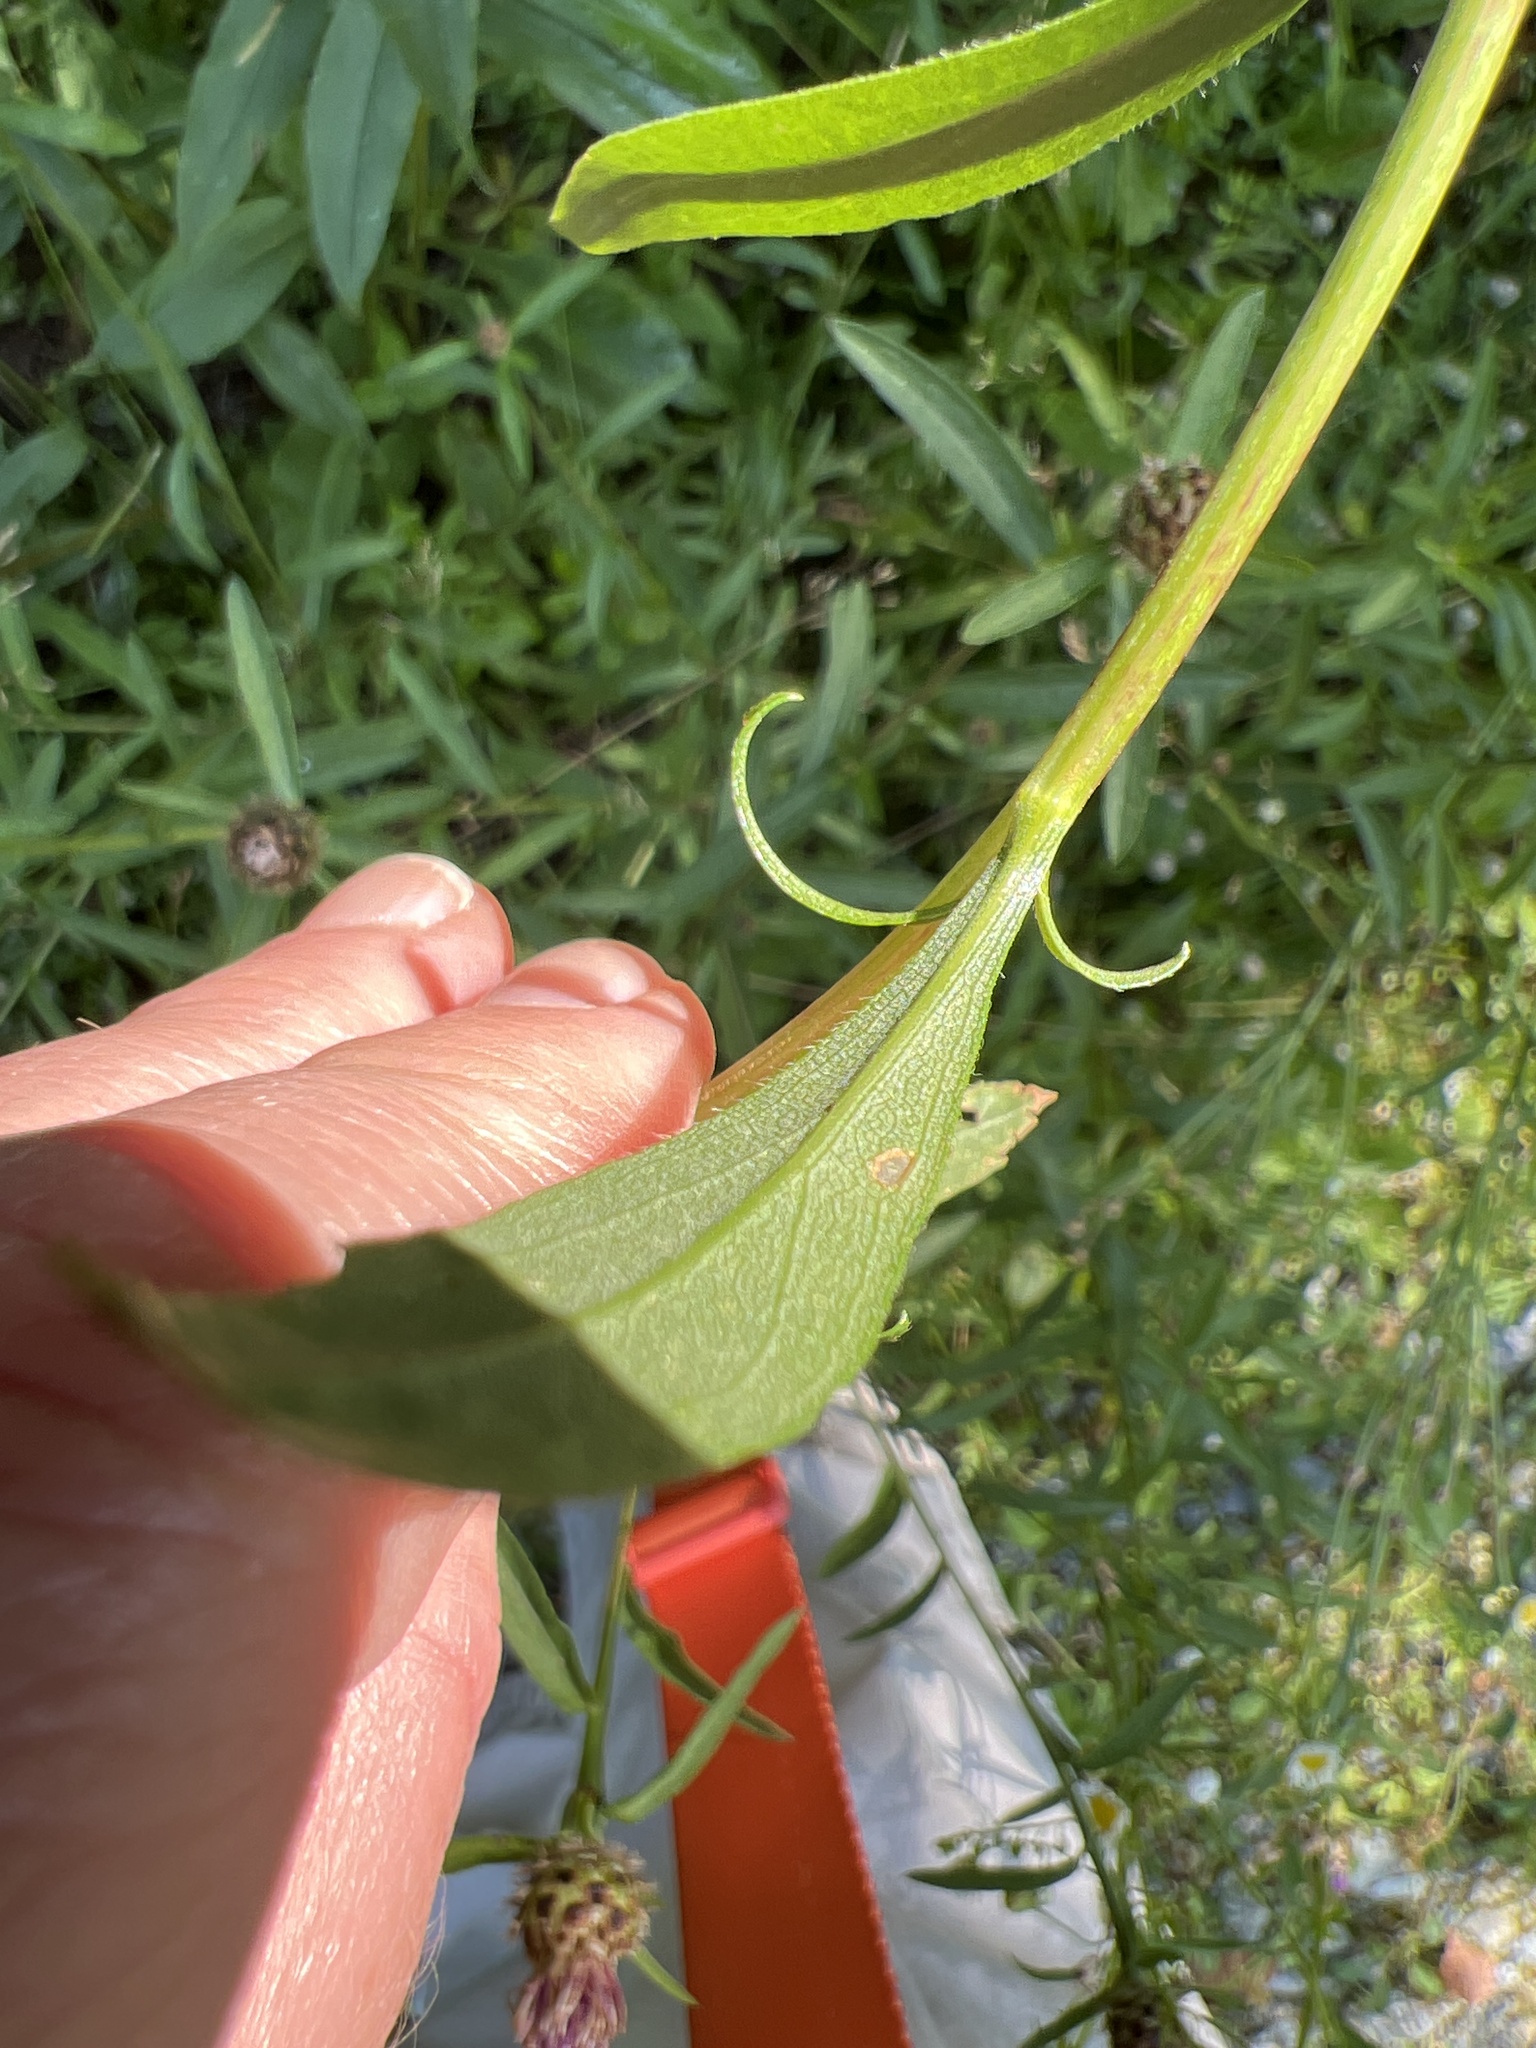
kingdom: Plantae
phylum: Tracheophyta
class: Magnoliopsida
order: Asterales
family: Asteraceae
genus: Solidago
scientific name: Solidago juncea
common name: Early goldenrod
